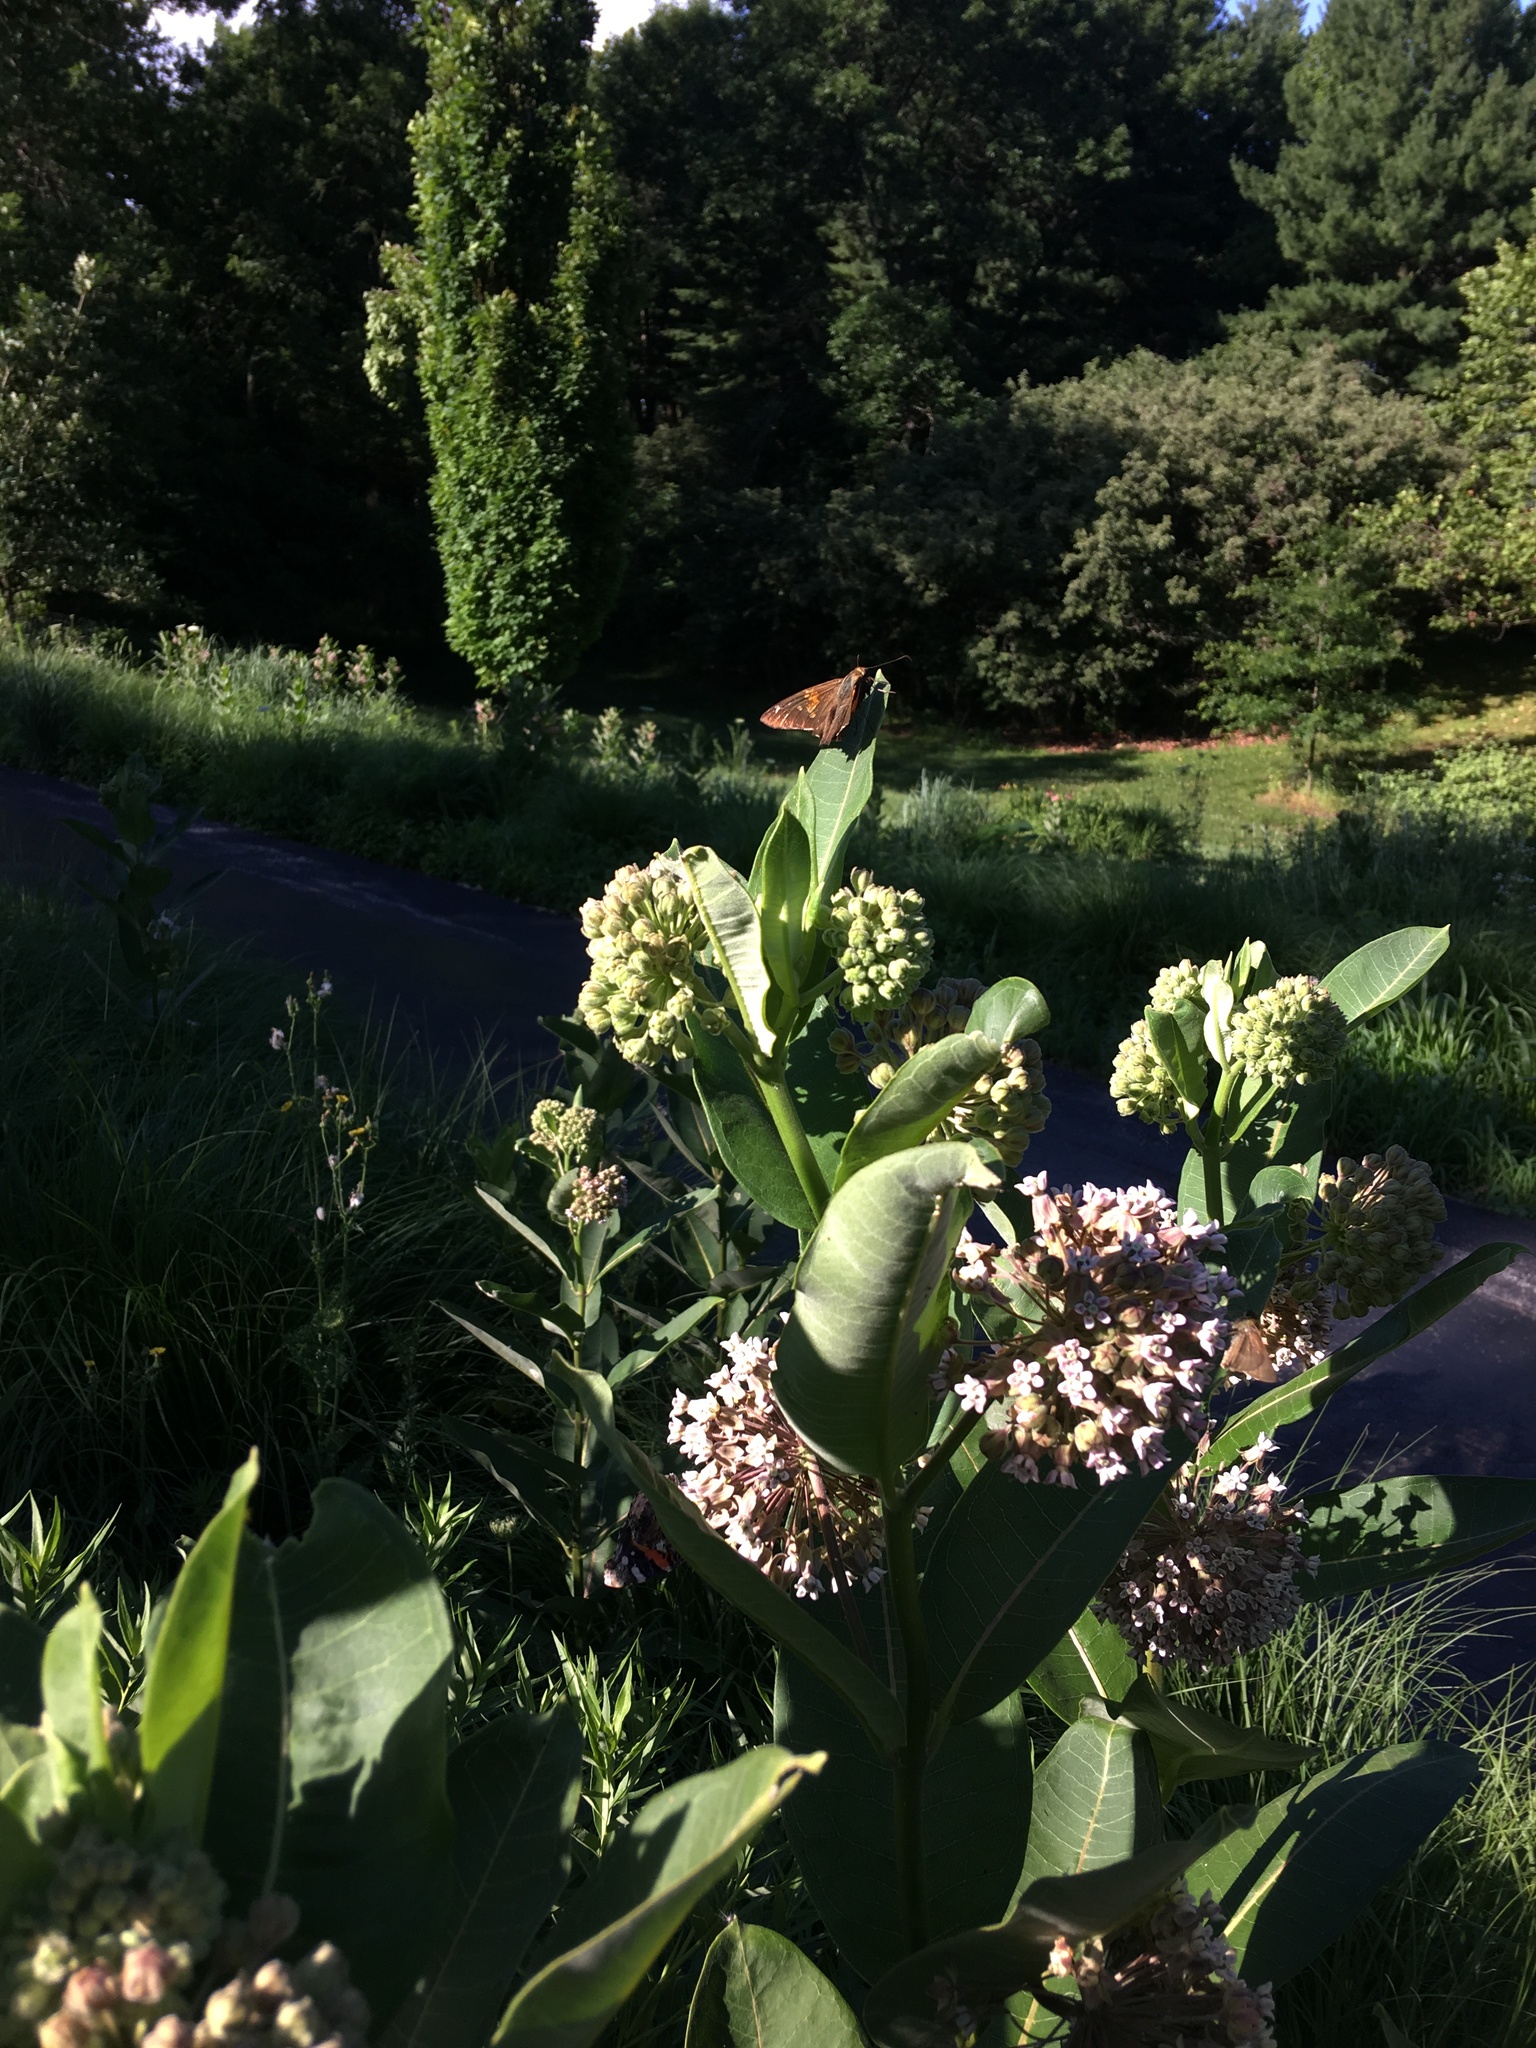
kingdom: Animalia
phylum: Arthropoda
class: Insecta
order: Lepidoptera
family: Hesperiidae
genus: Epargyreus
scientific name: Epargyreus clarus
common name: Silver-spotted skipper
